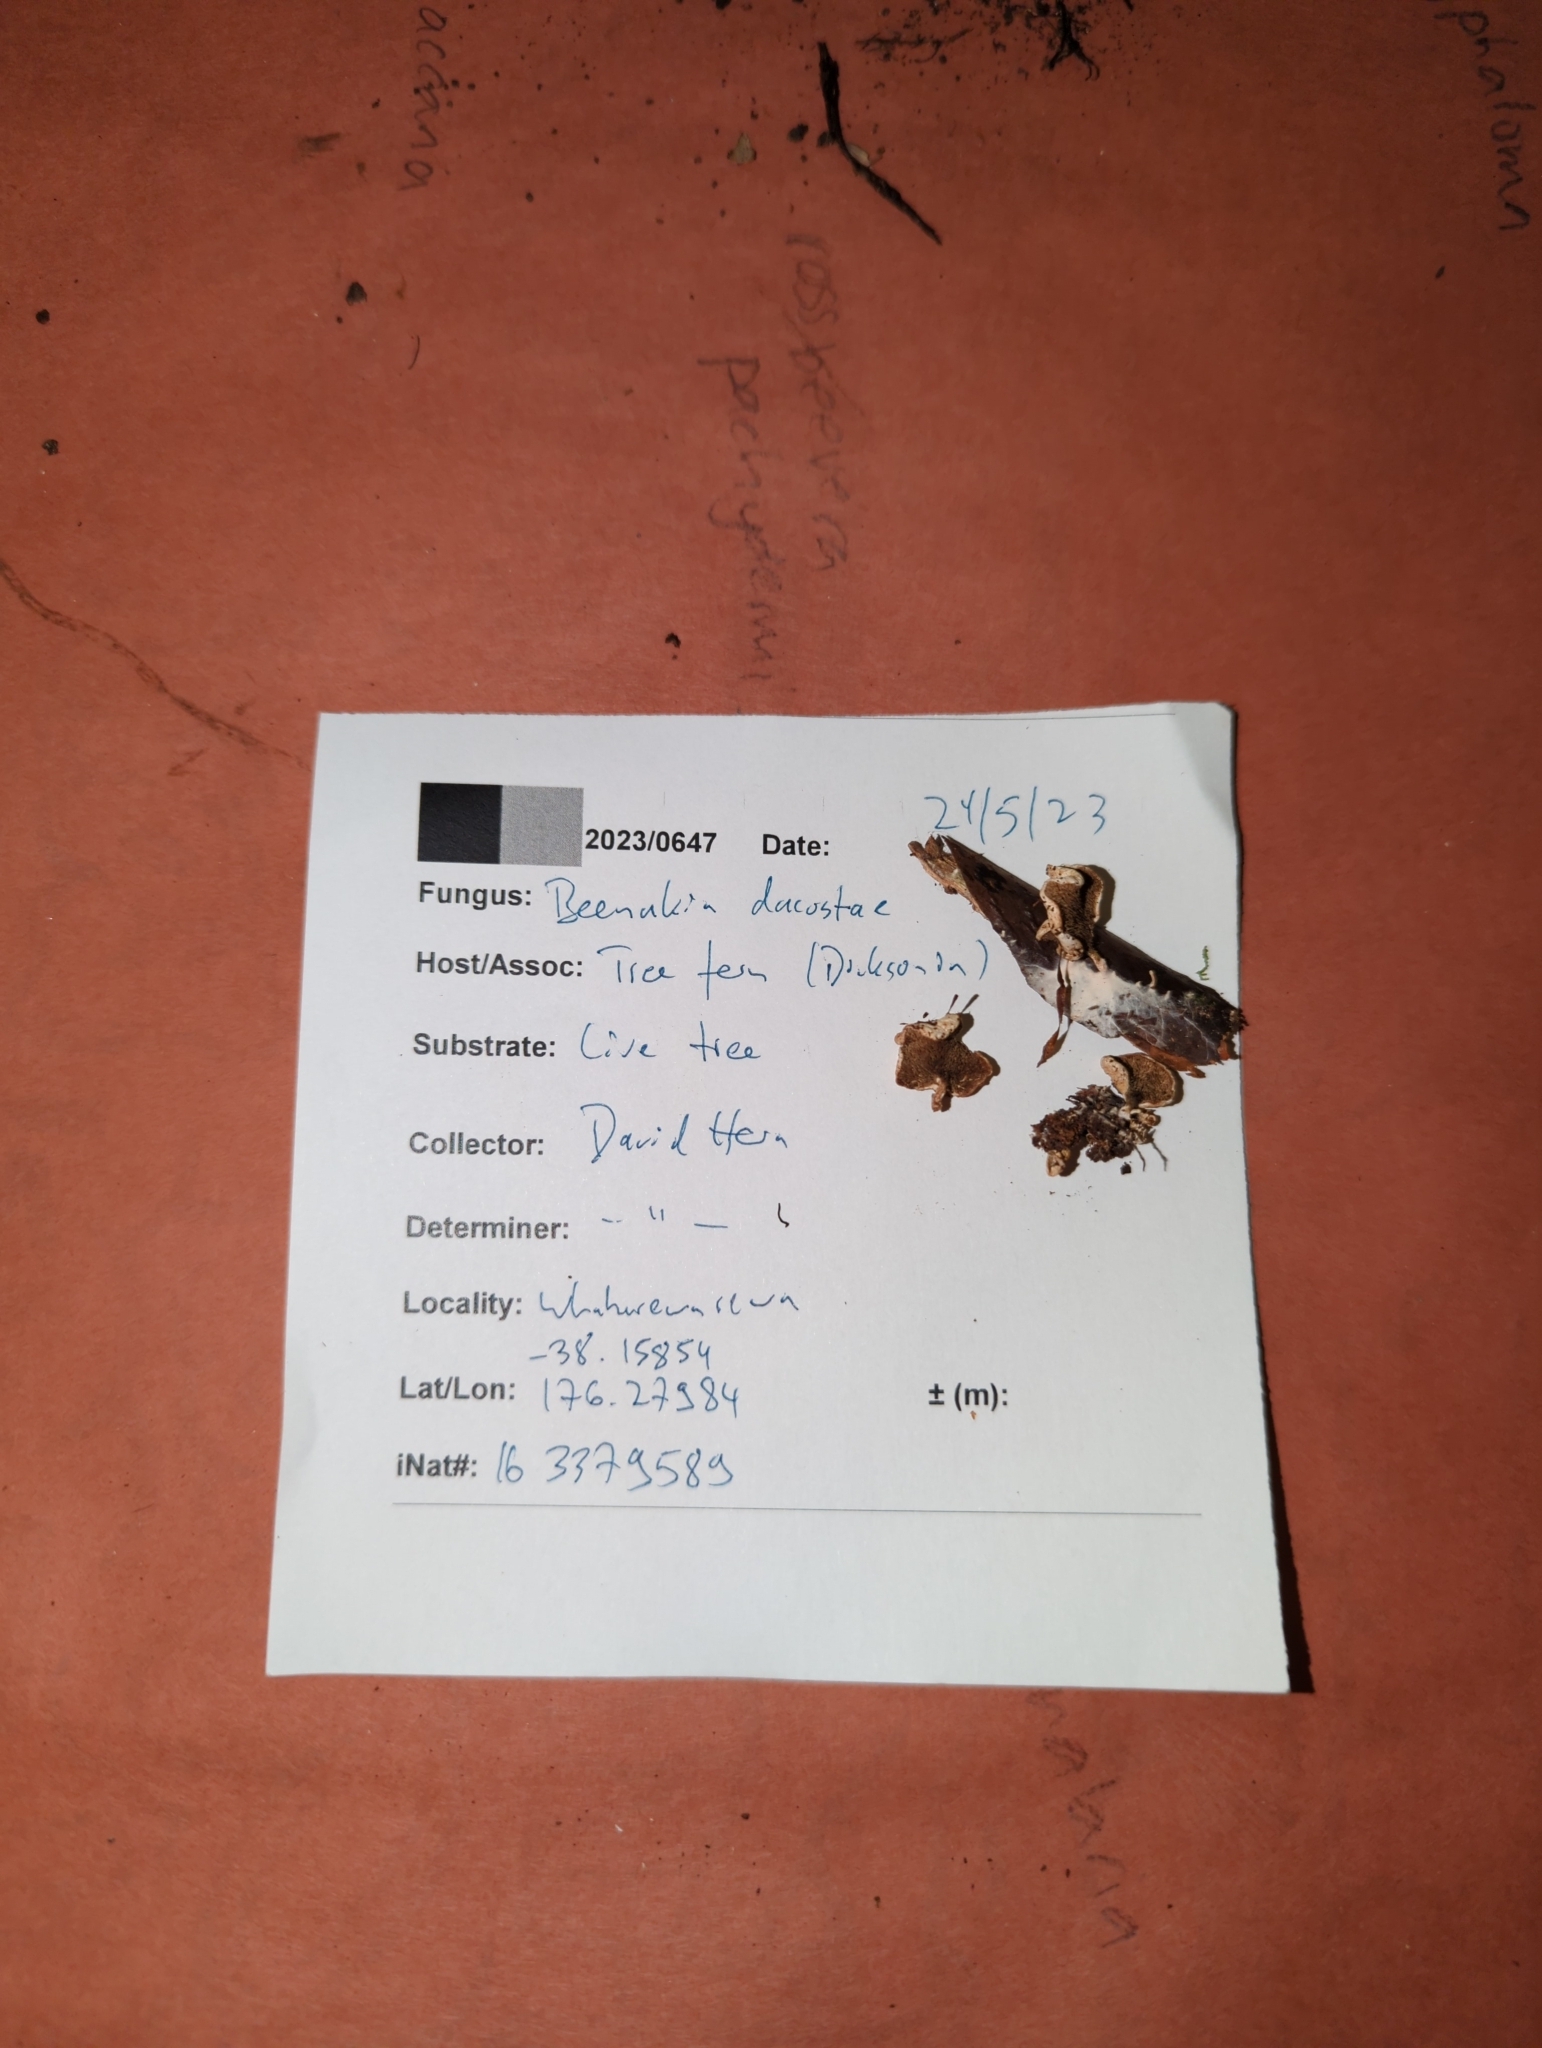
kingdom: Fungi
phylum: Basidiomycota
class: Agaricomycetes
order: Gomphales
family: Clavariadelphaceae
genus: Beenakia
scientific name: Beenakia dacostae
